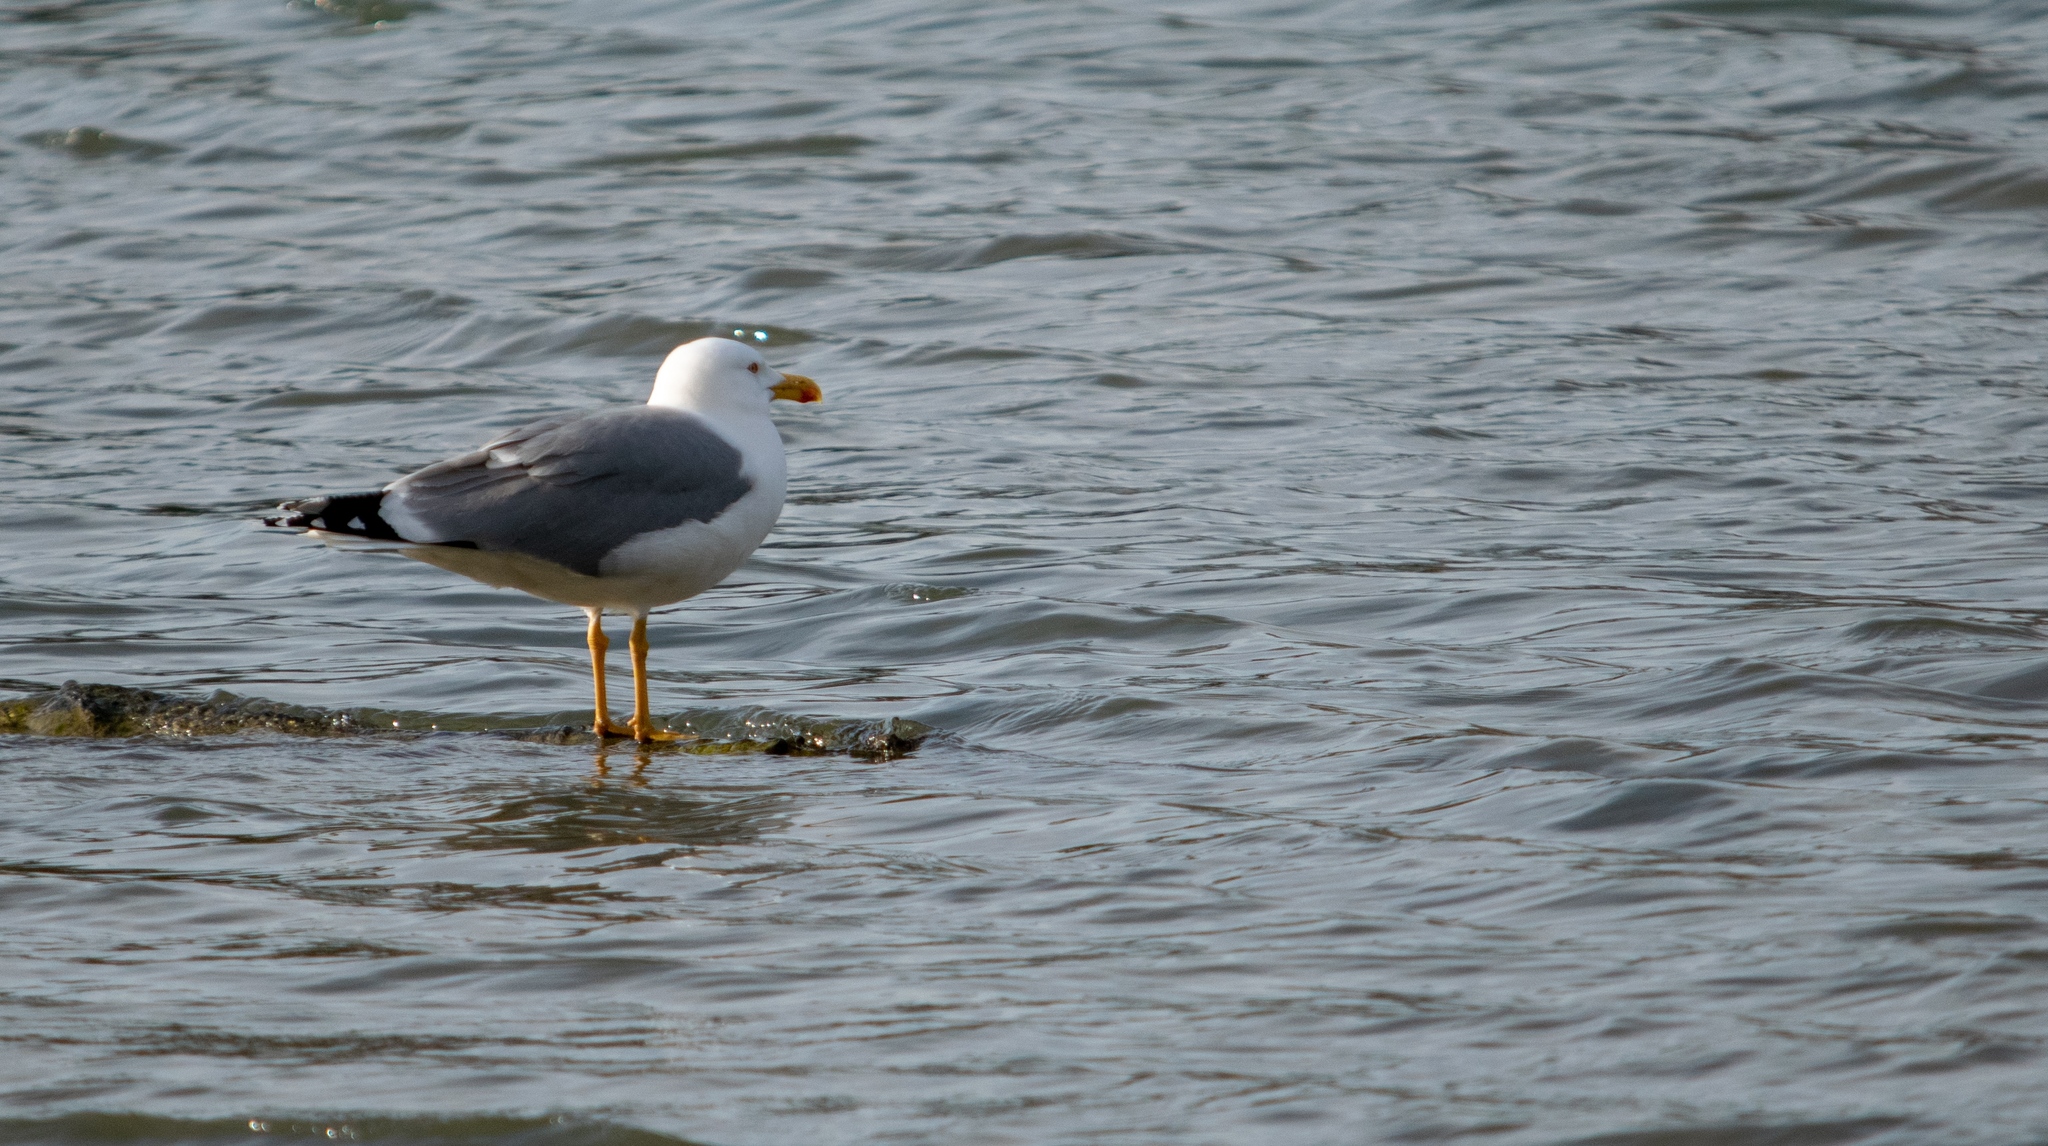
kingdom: Animalia
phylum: Chordata
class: Aves
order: Charadriiformes
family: Laridae
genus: Larus
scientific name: Larus michahellis
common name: Yellow-legged gull
